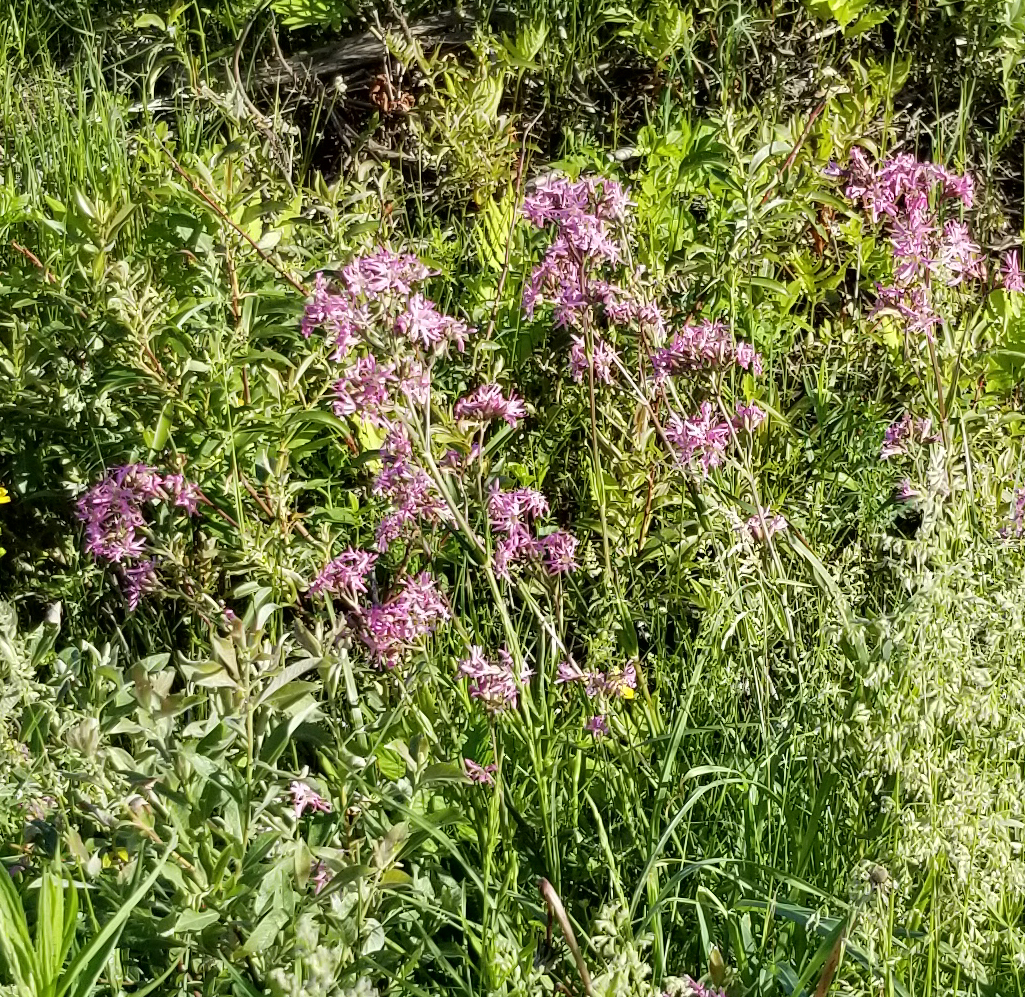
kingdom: Plantae
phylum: Tracheophyta
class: Magnoliopsida
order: Caryophyllales
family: Caryophyllaceae
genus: Silene
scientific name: Silene flos-cuculi
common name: Ragged-robin
